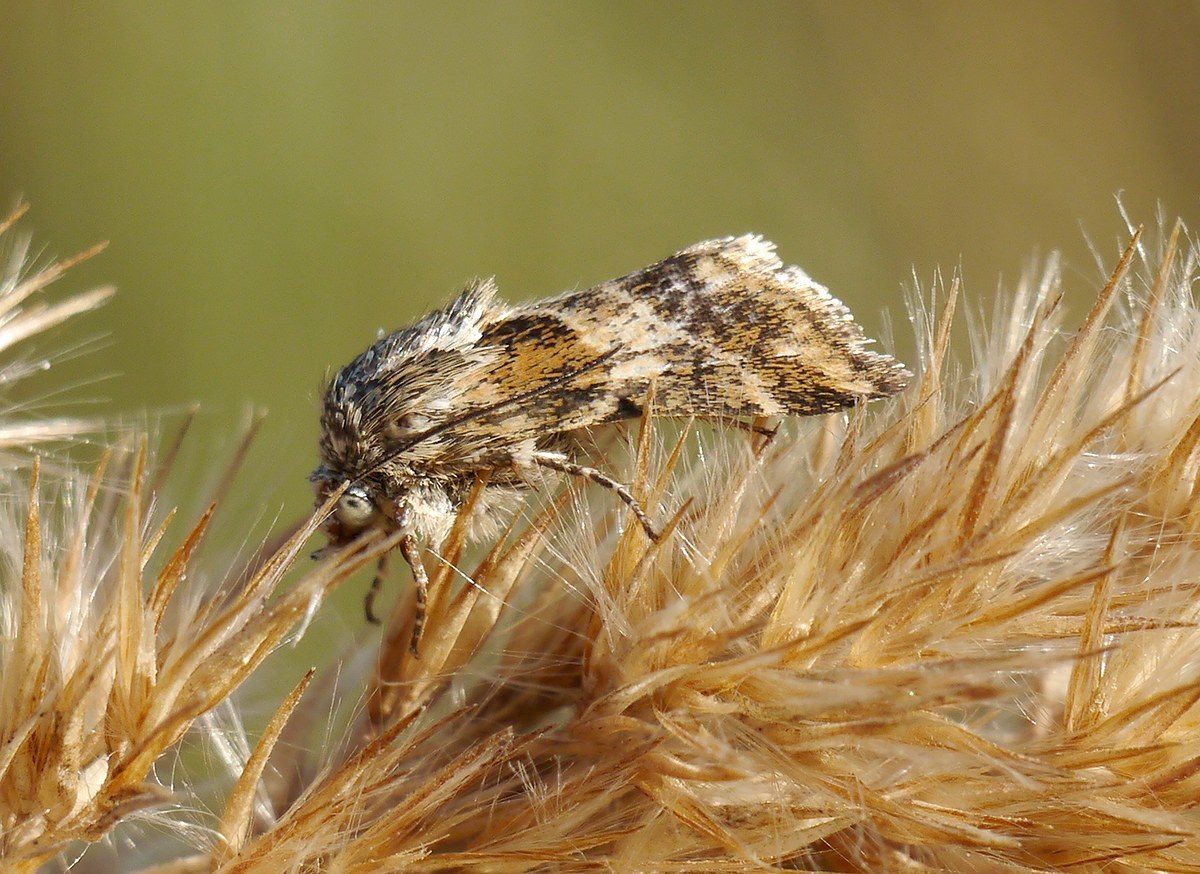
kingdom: Animalia
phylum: Arthropoda
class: Insecta
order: Lepidoptera
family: Noctuidae
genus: Schinia
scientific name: Schinia cognata
